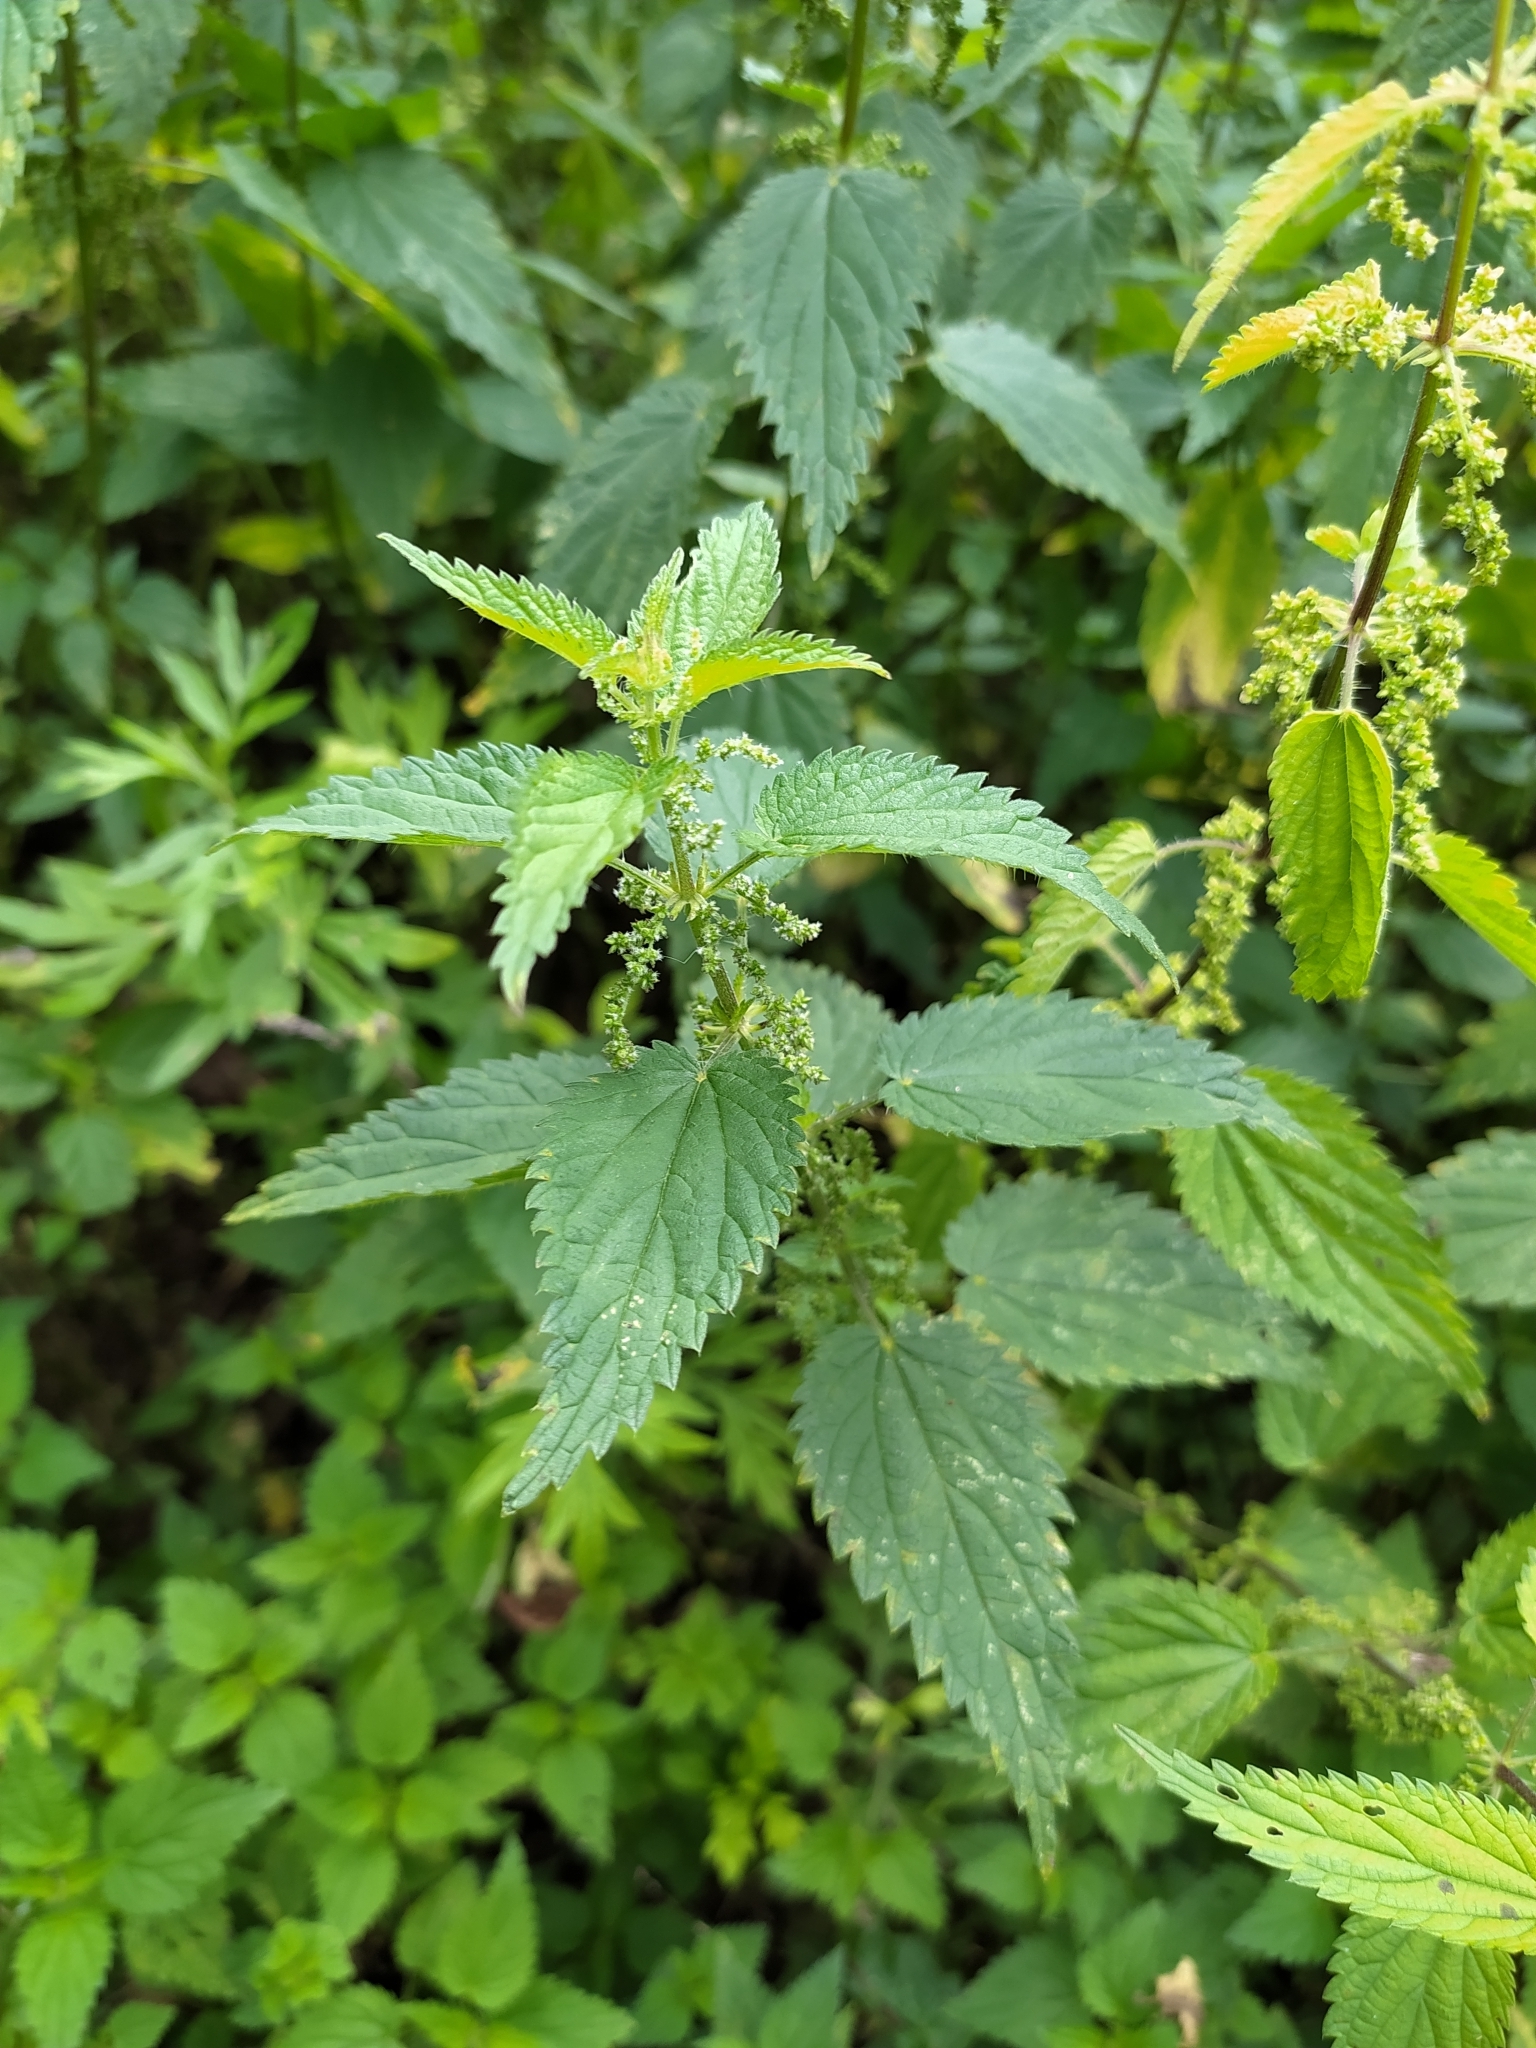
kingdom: Plantae
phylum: Tracheophyta
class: Magnoliopsida
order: Rosales
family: Urticaceae
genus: Urtica
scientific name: Urtica dioica
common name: Common nettle
